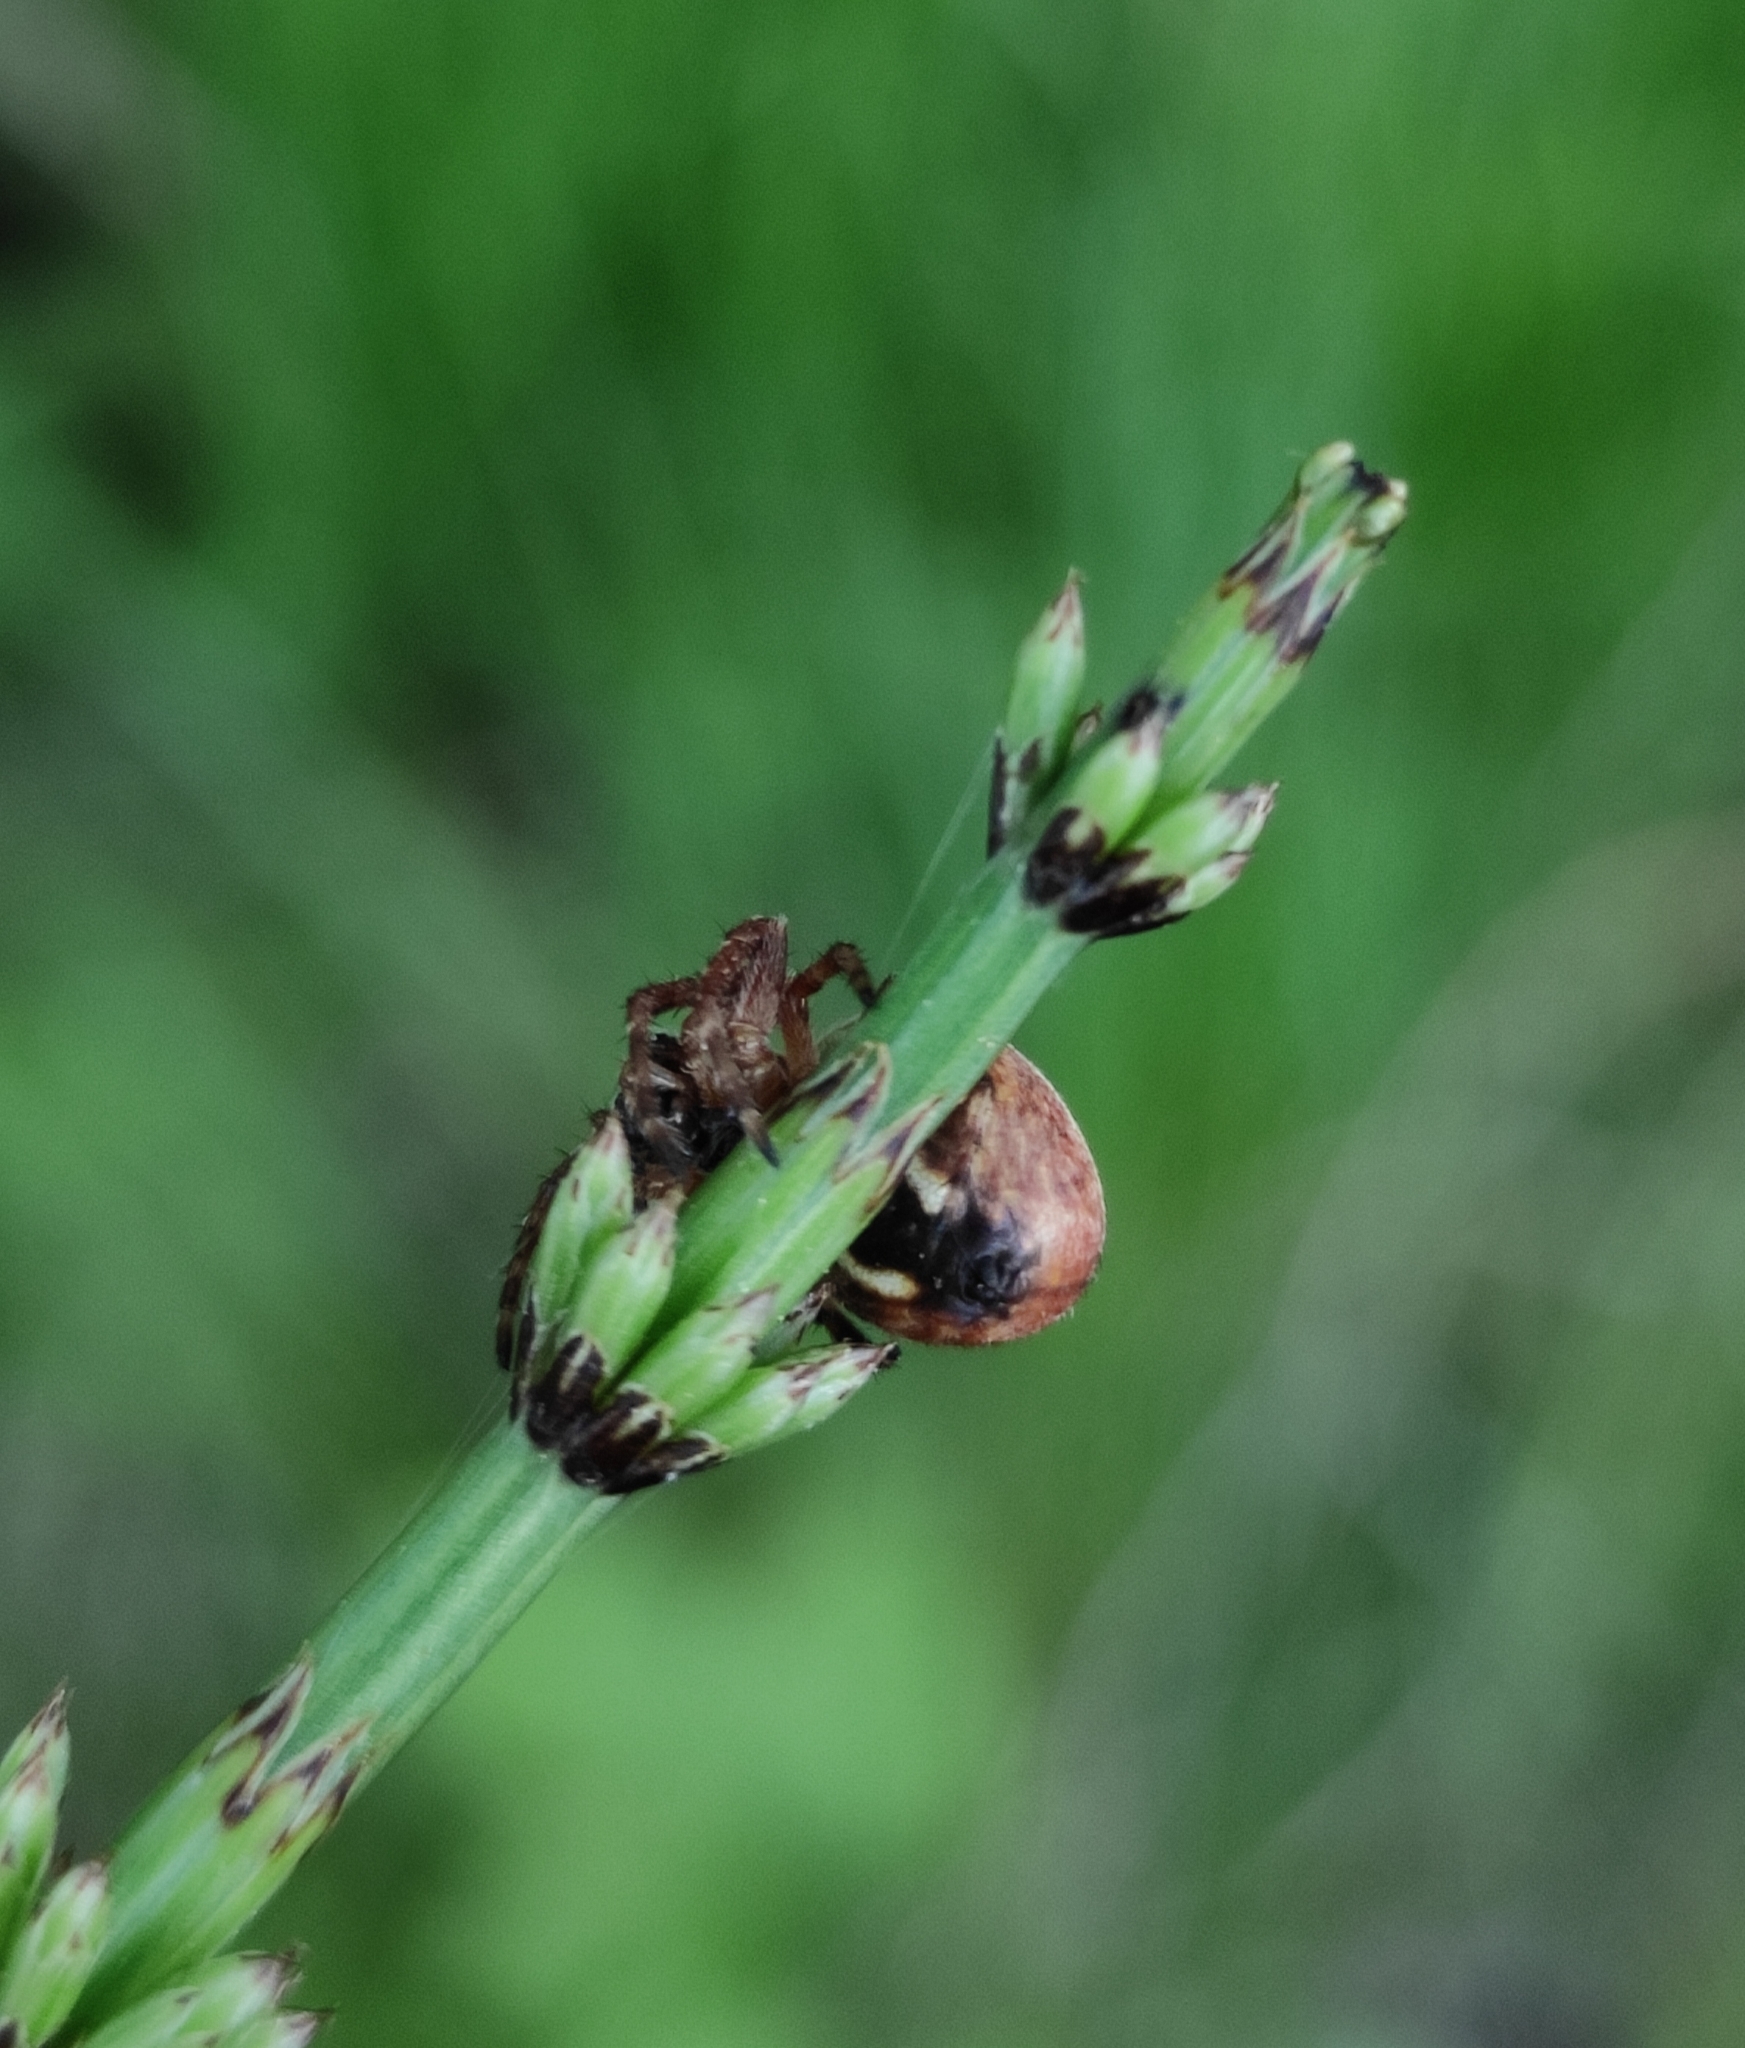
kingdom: Animalia
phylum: Arthropoda
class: Arachnida
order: Araneae
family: Araneidae
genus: Larinioides
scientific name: Larinioides patagiatus
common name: Ornamental orbweaver
